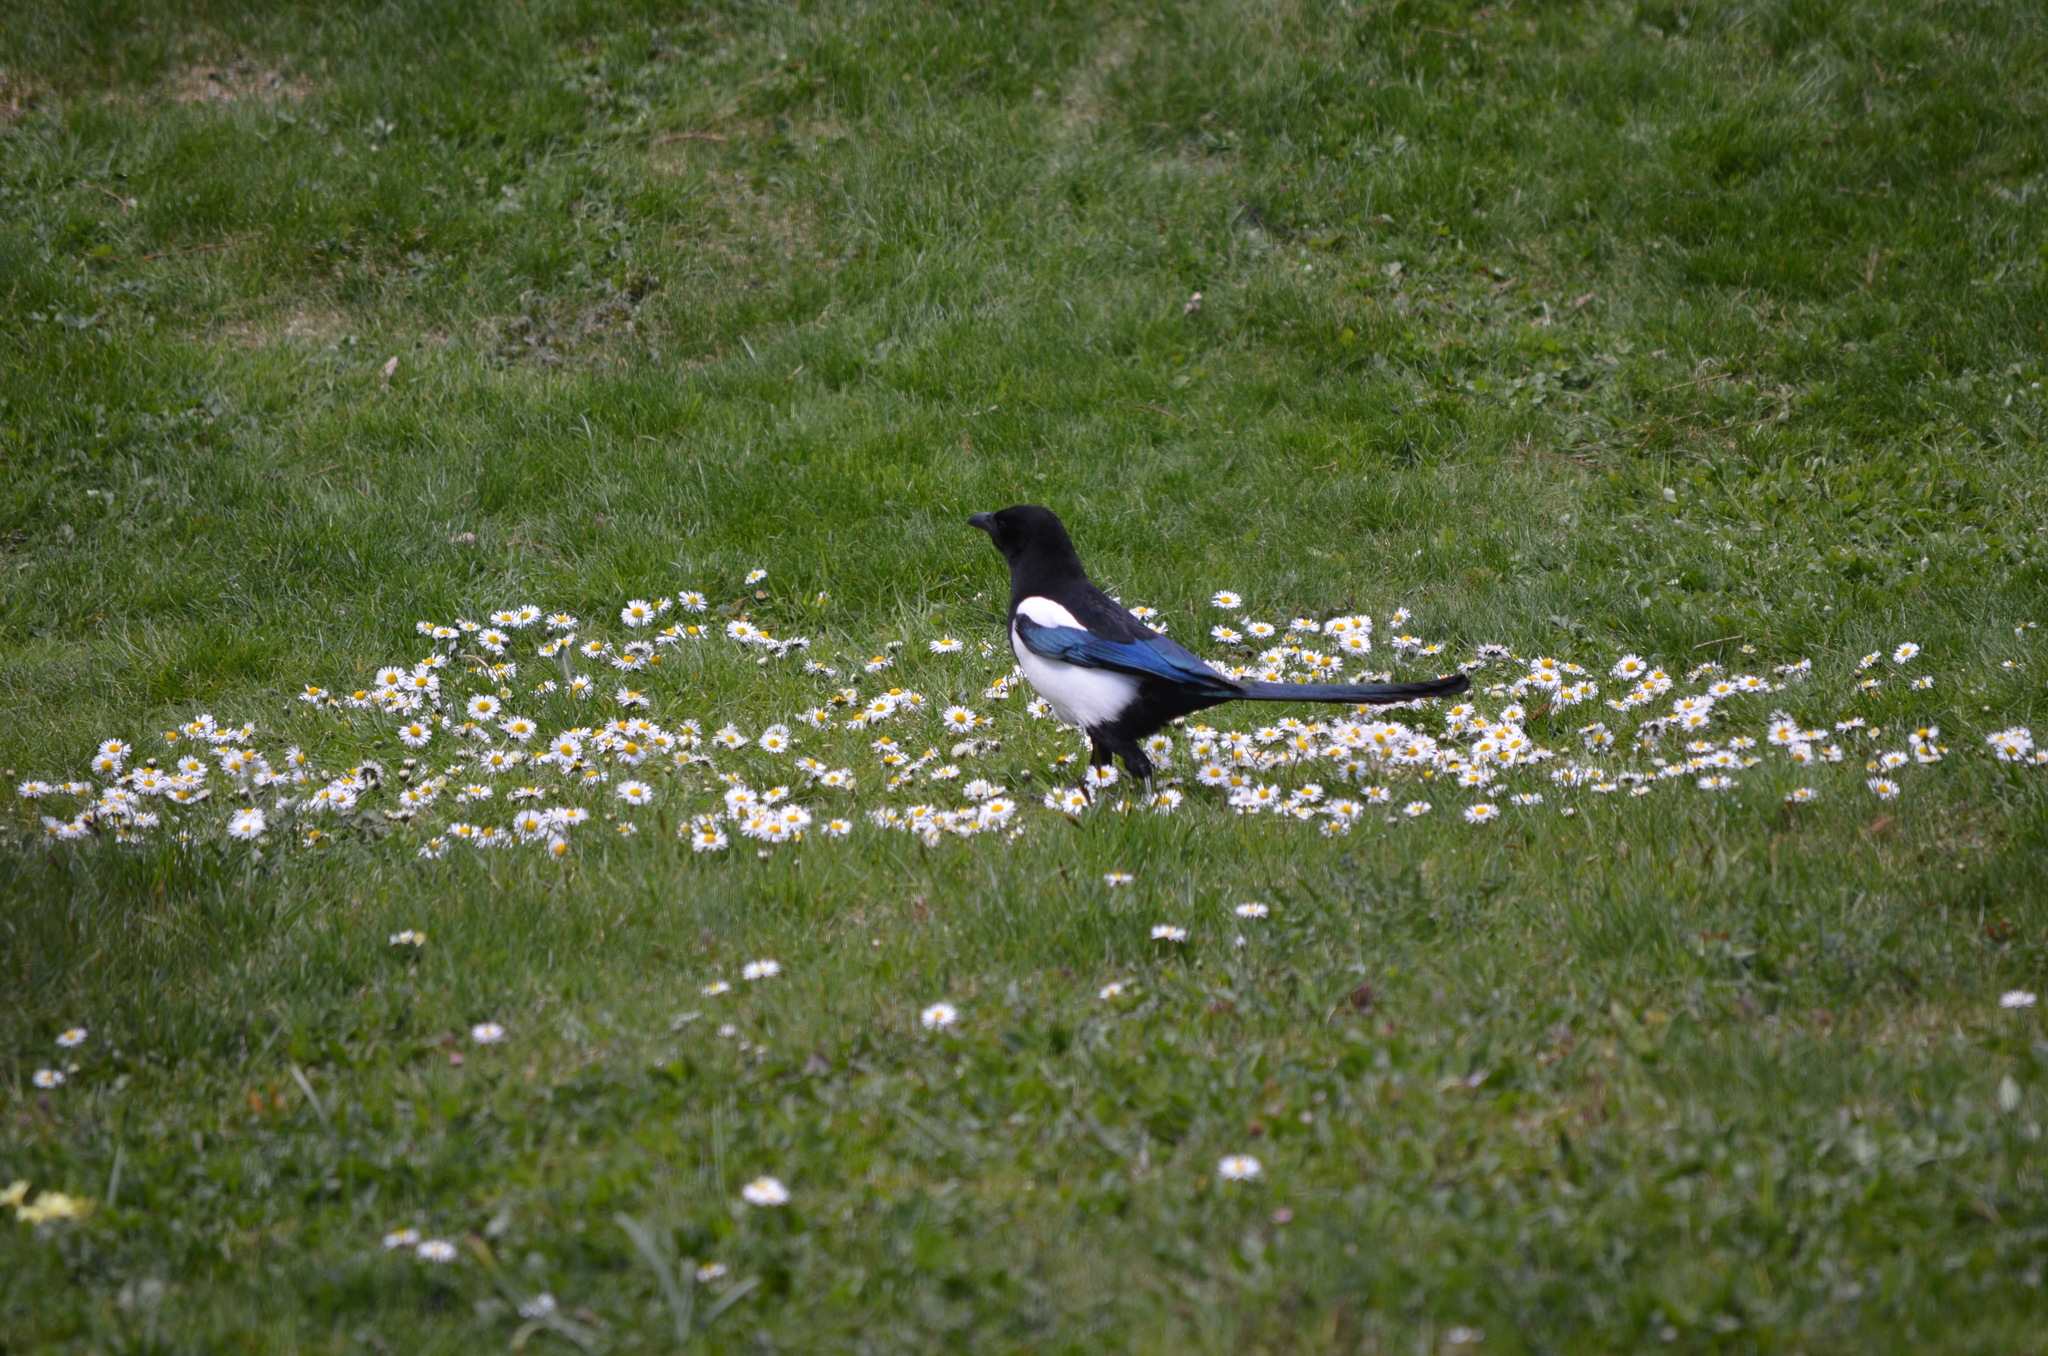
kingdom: Animalia
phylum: Chordata
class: Aves
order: Passeriformes
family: Corvidae
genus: Pica
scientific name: Pica pica
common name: Eurasian magpie
